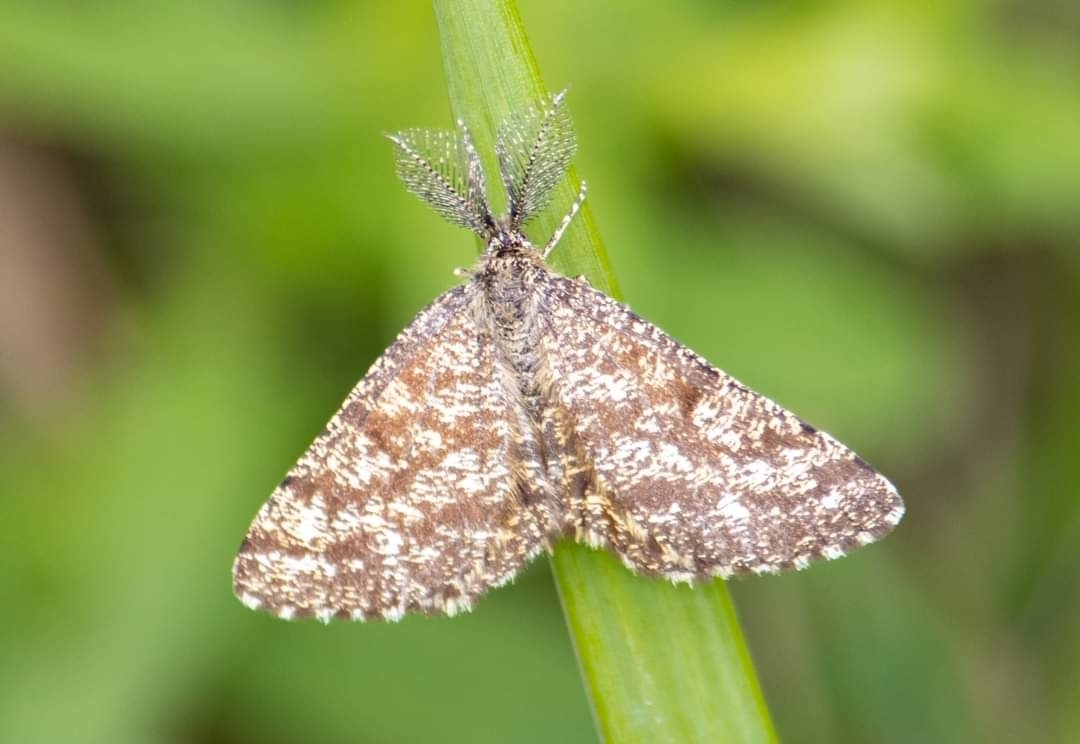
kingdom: Animalia
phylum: Arthropoda
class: Insecta
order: Lepidoptera
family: Geometridae
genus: Ematurga
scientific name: Ematurga atomaria
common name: Common heath
